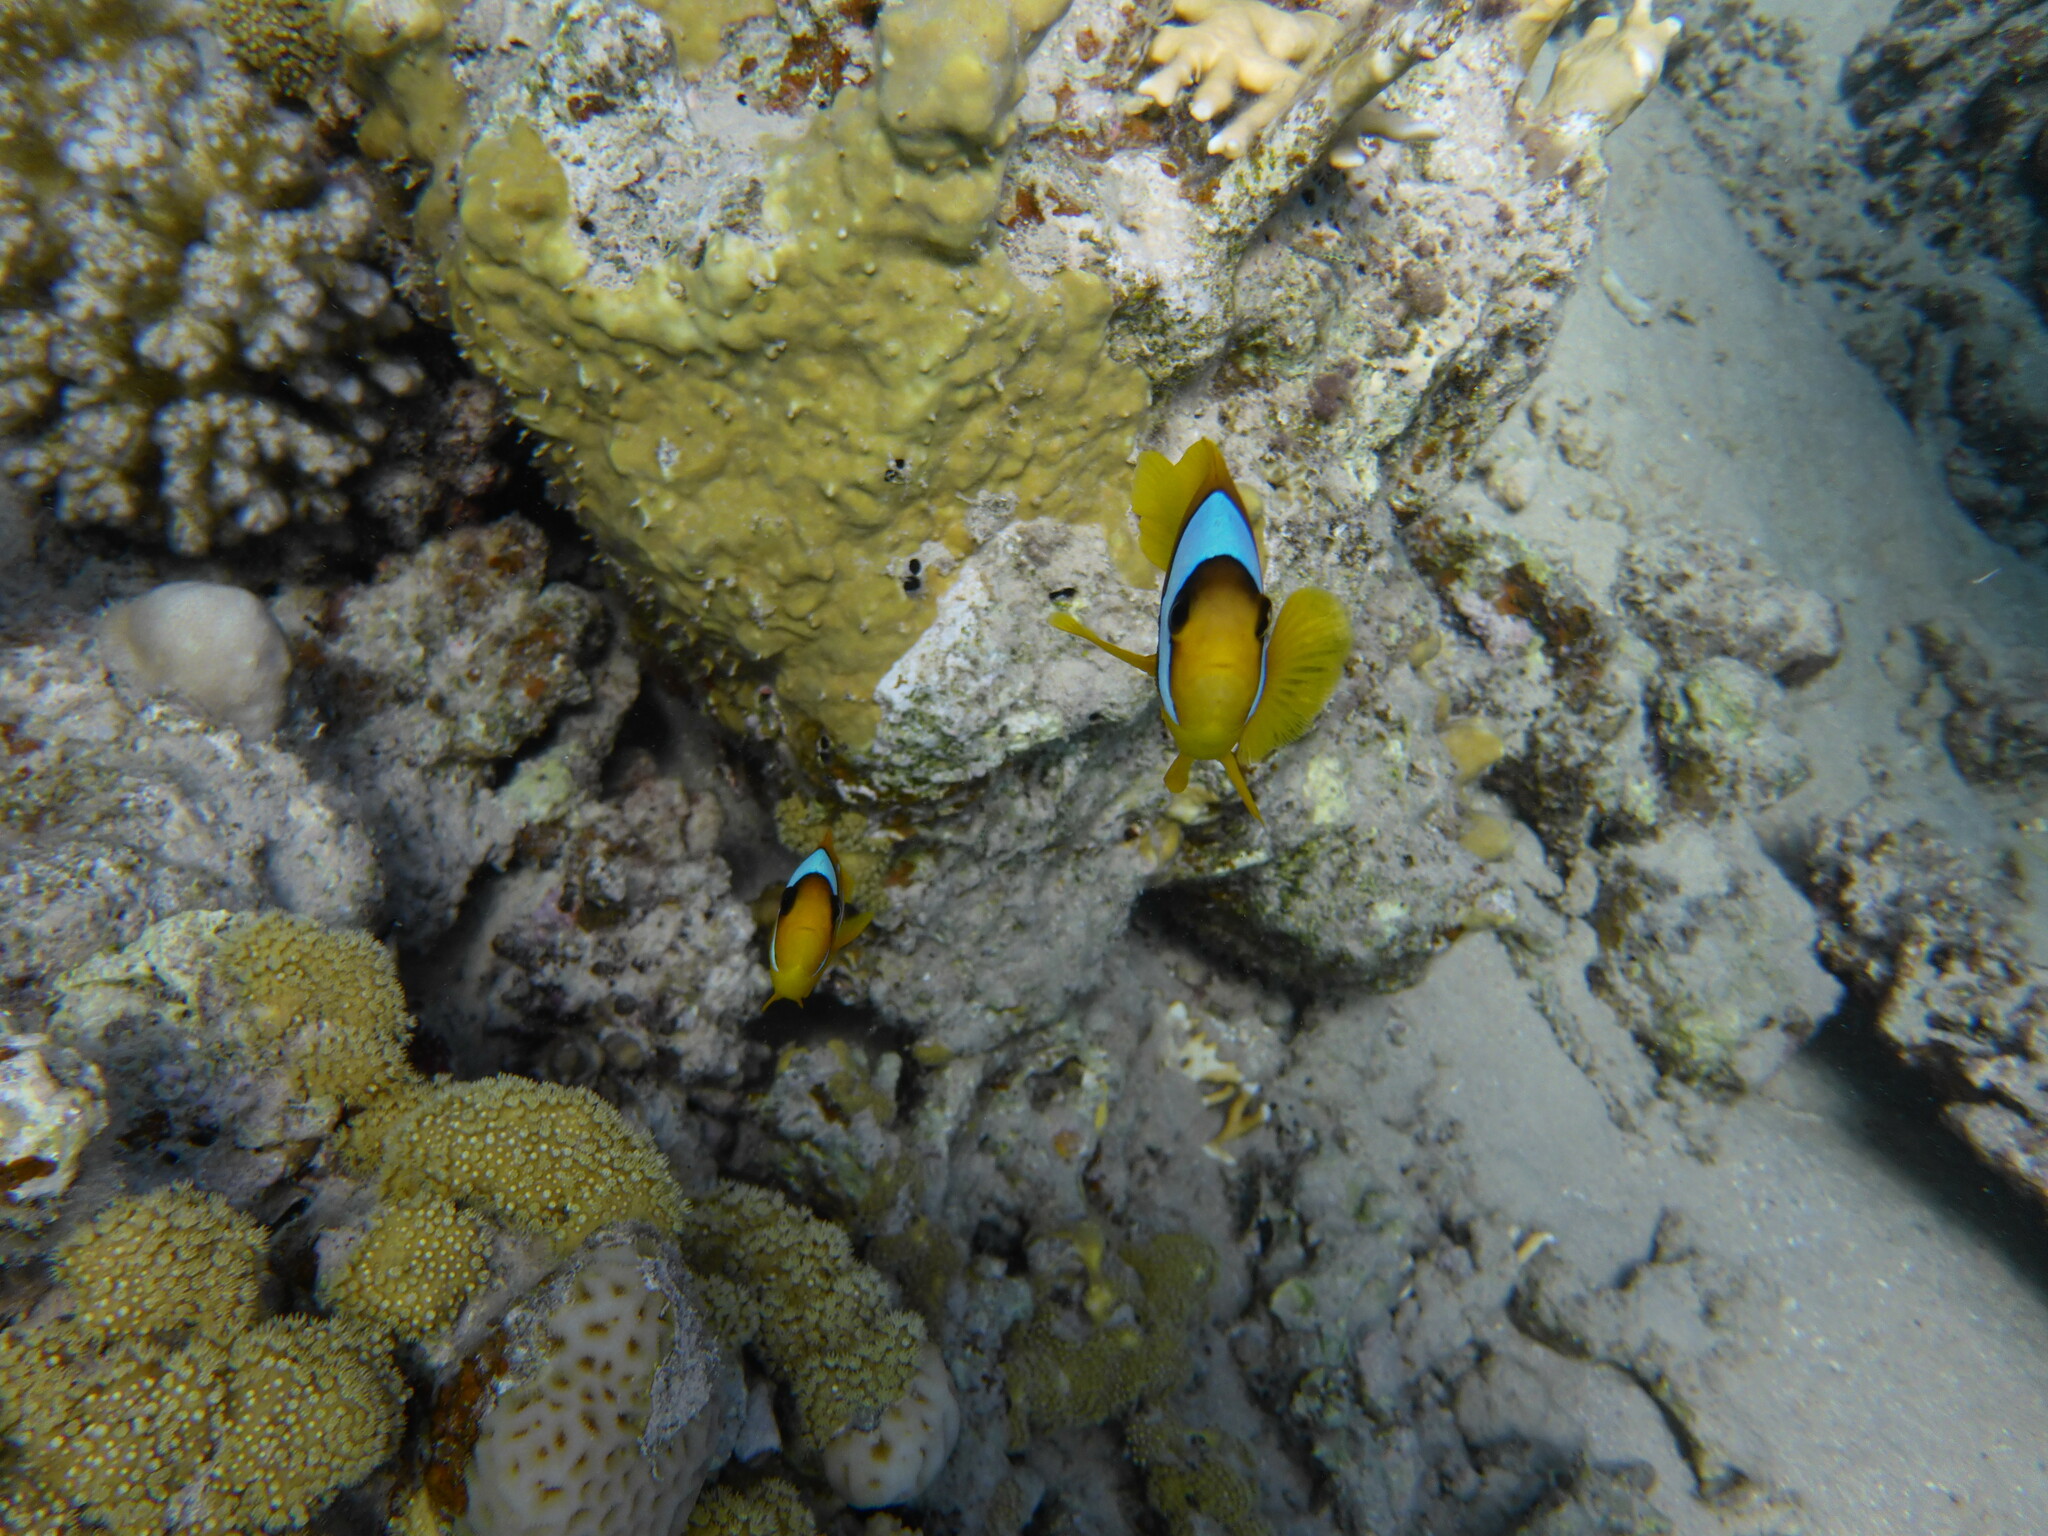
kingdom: Animalia
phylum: Chordata
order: Perciformes
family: Pomacentridae
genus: Amphiprion
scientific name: Amphiprion bicinctus
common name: Two-banded anemonefish
